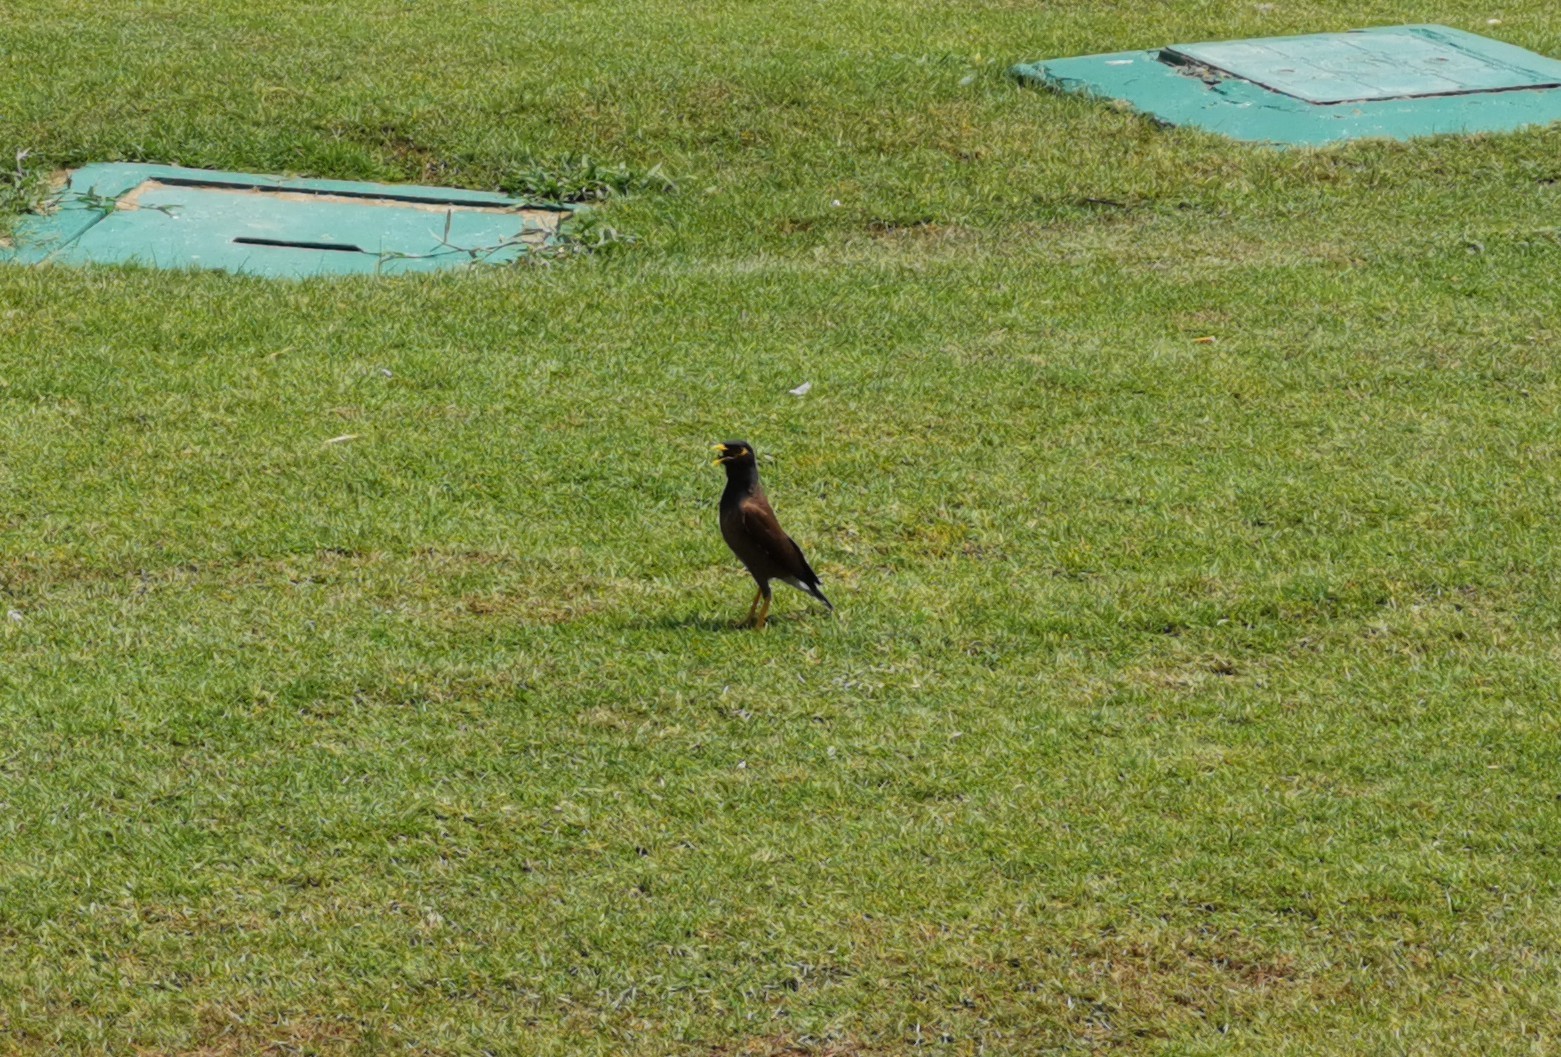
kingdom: Animalia
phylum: Chordata
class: Aves
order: Passeriformes
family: Sturnidae
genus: Acridotheres
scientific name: Acridotheres tristis
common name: Common myna
